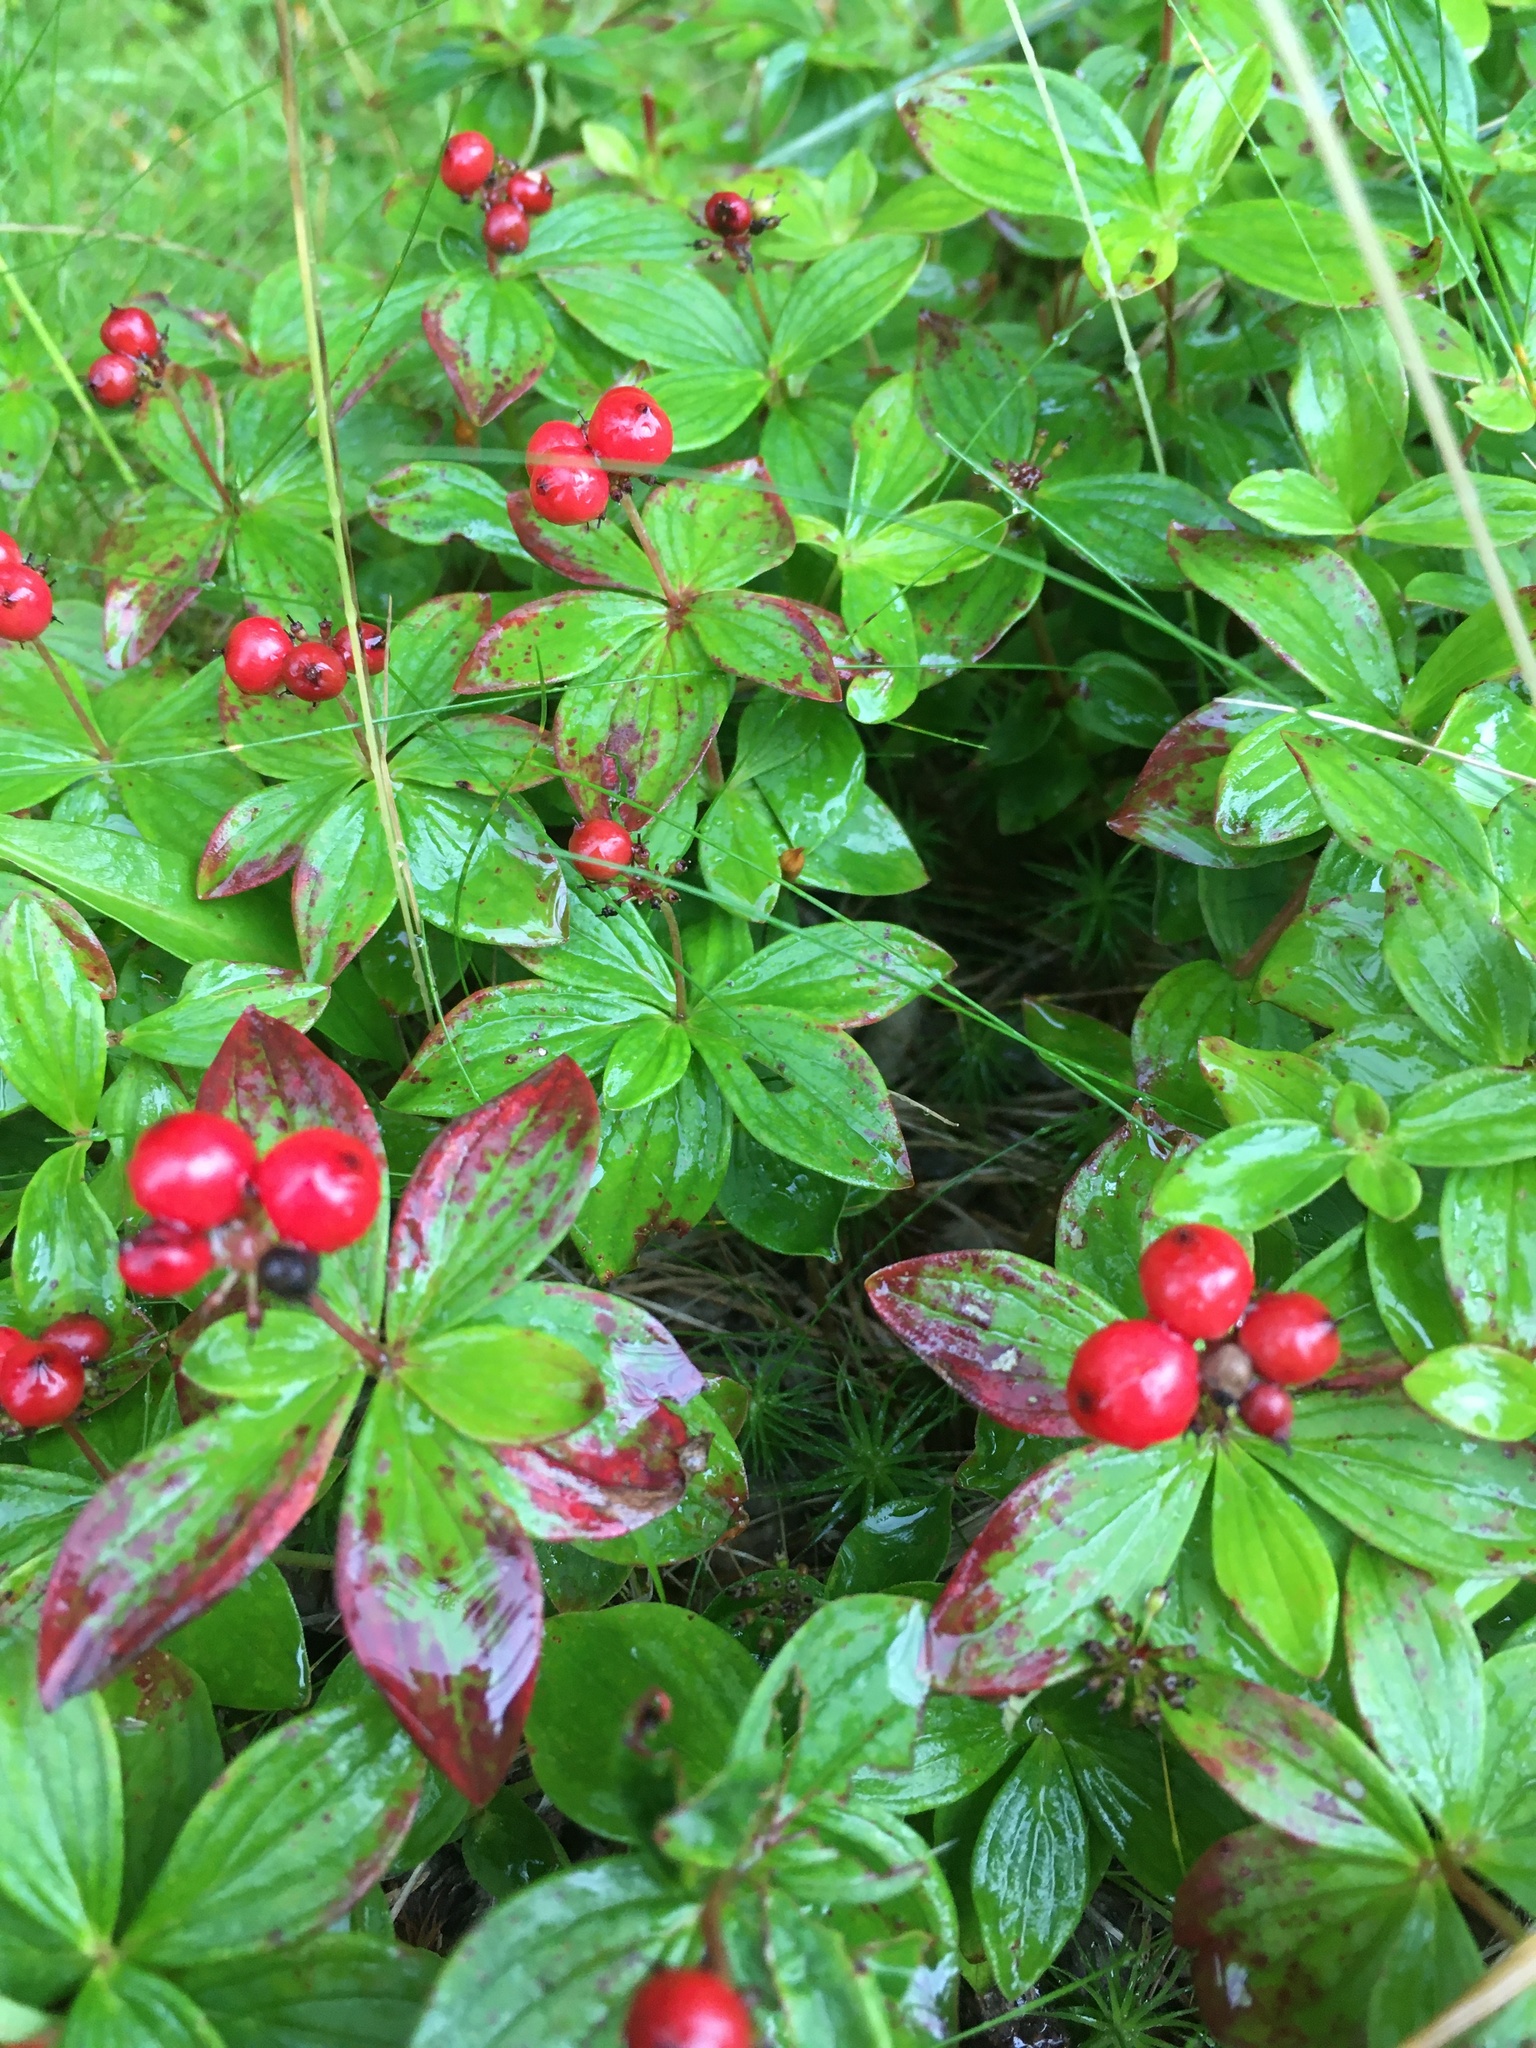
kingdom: Plantae
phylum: Tracheophyta
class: Magnoliopsida
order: Cornales
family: Cornaceae
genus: Cornus
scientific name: Cornus suecica
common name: Dwarf cornel
